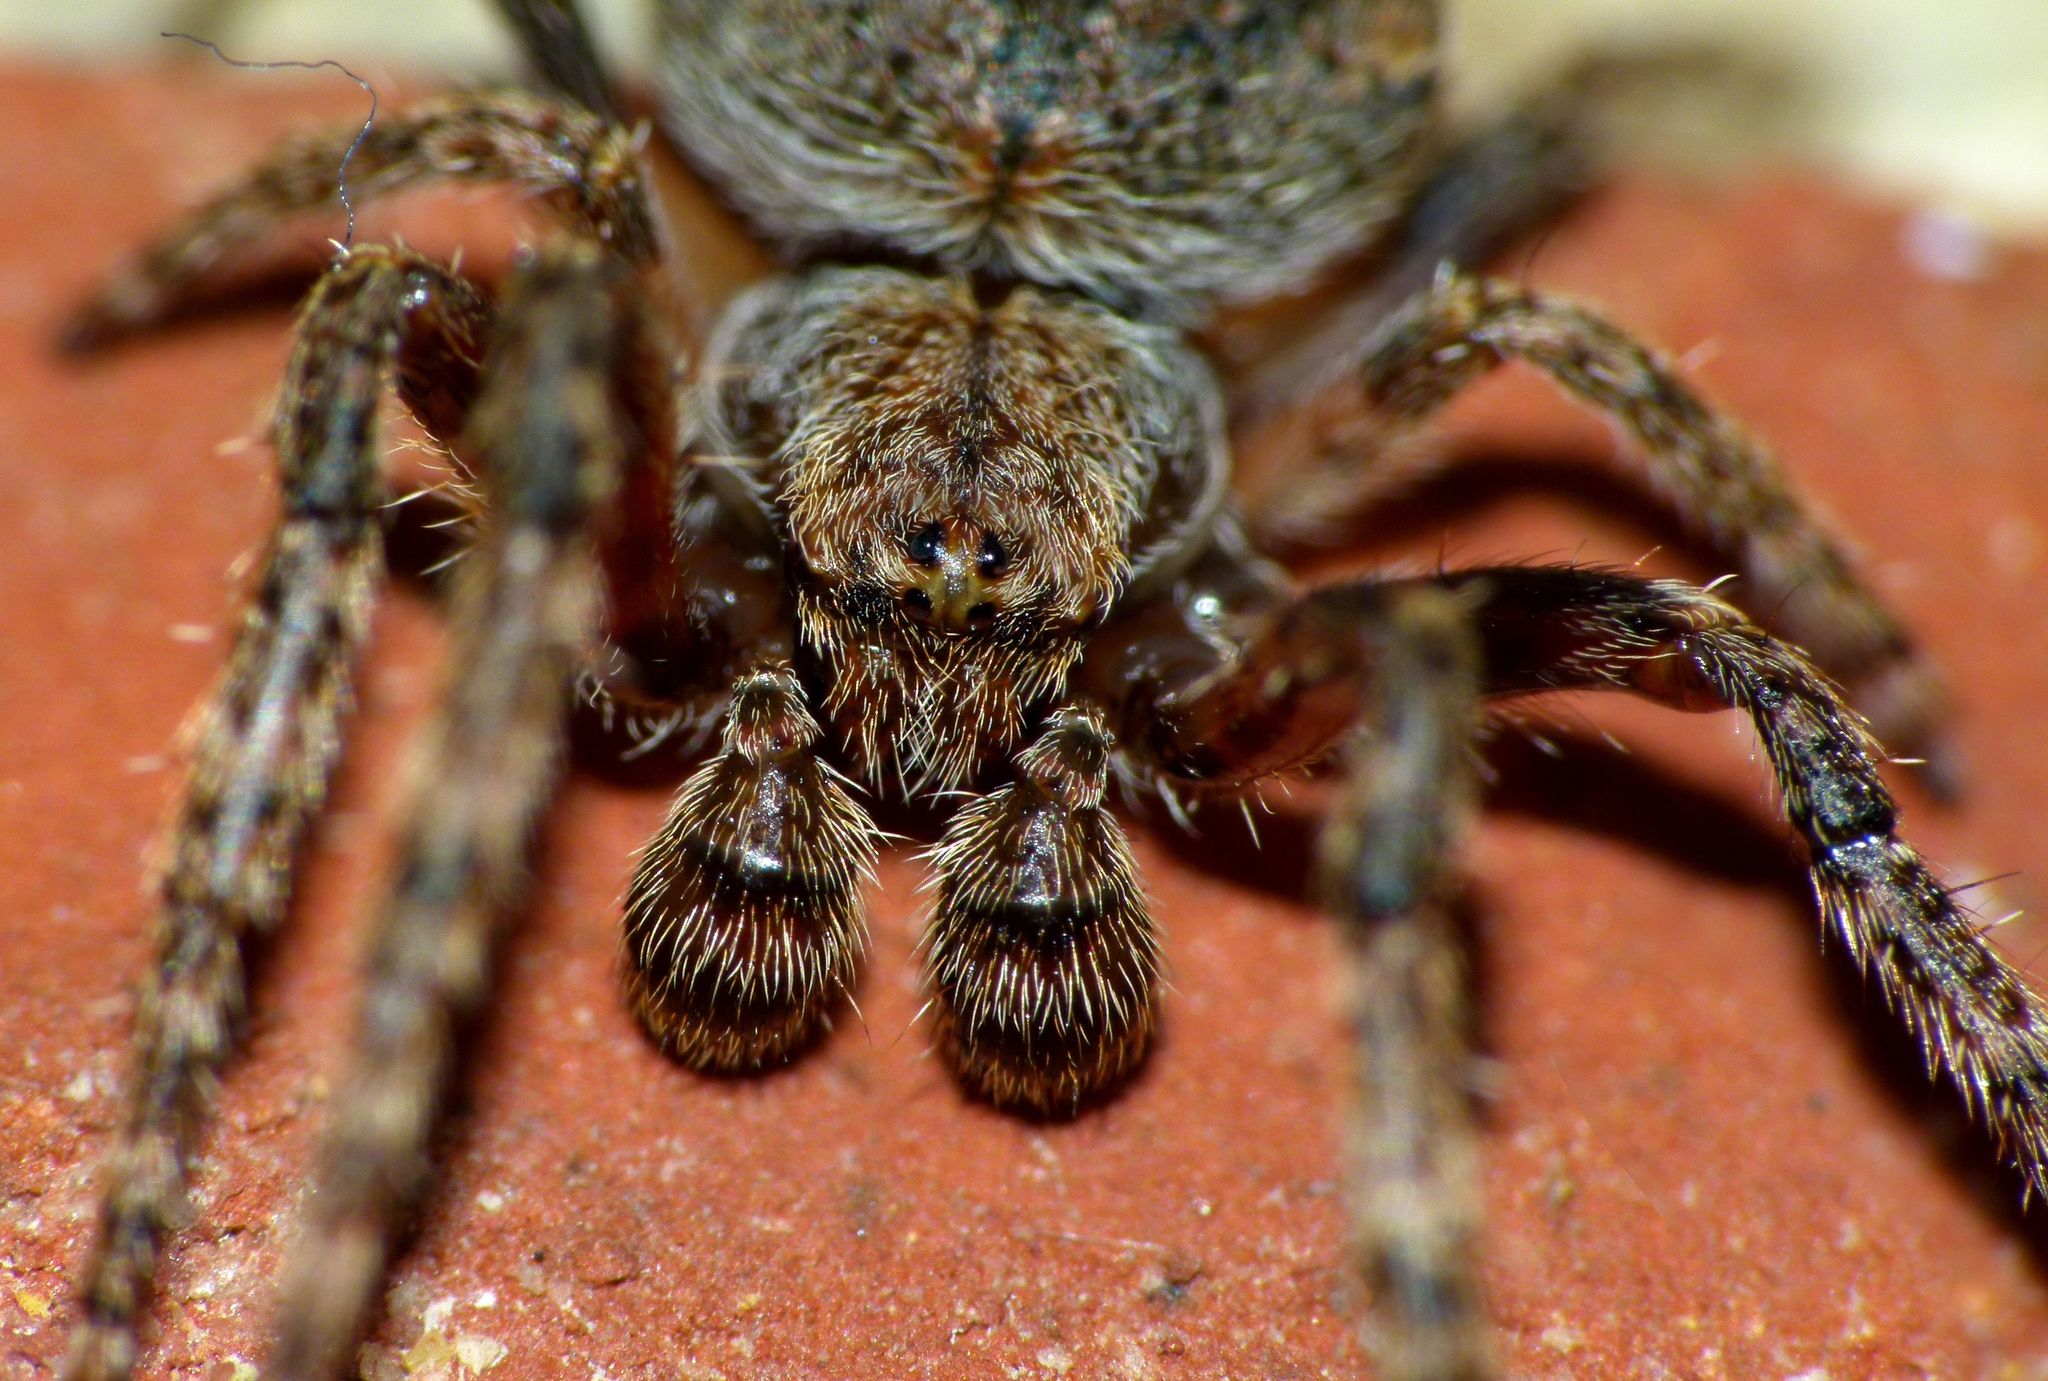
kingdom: Animalia
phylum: Arthropoda
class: Arachnida
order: Araneae
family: Araneidae
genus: Eriophora
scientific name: Eriophora pustulosa
